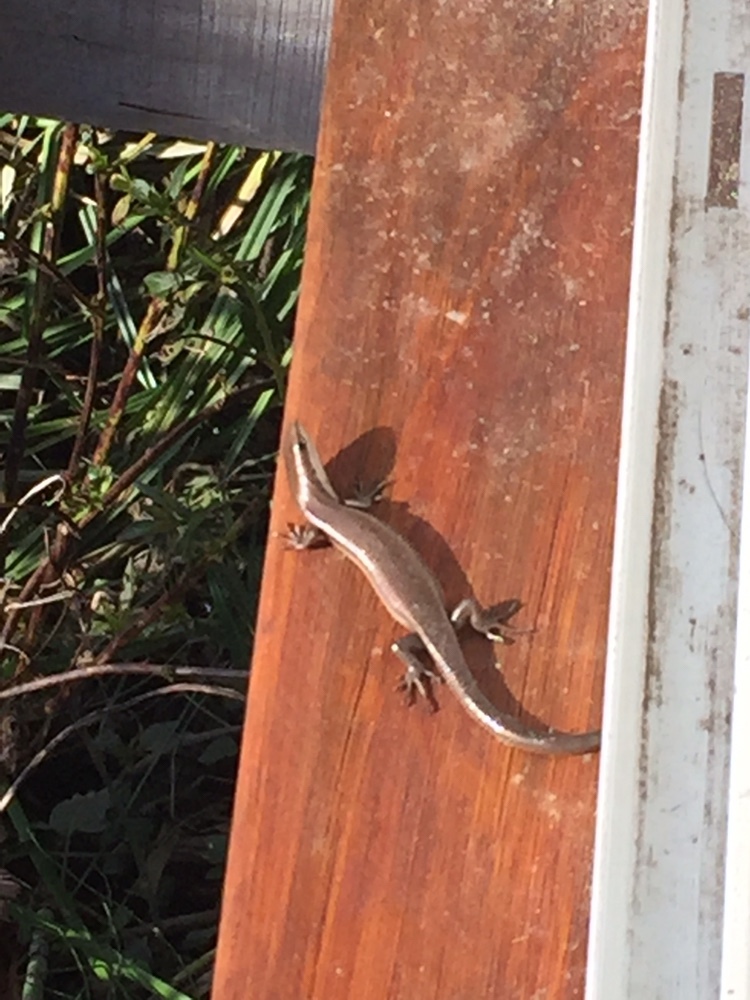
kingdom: Animalia
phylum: Chordata
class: Squamata
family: Scincidae
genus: Aspronema
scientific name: Aspronema dorsivittatum
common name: Paraguay mabuya
